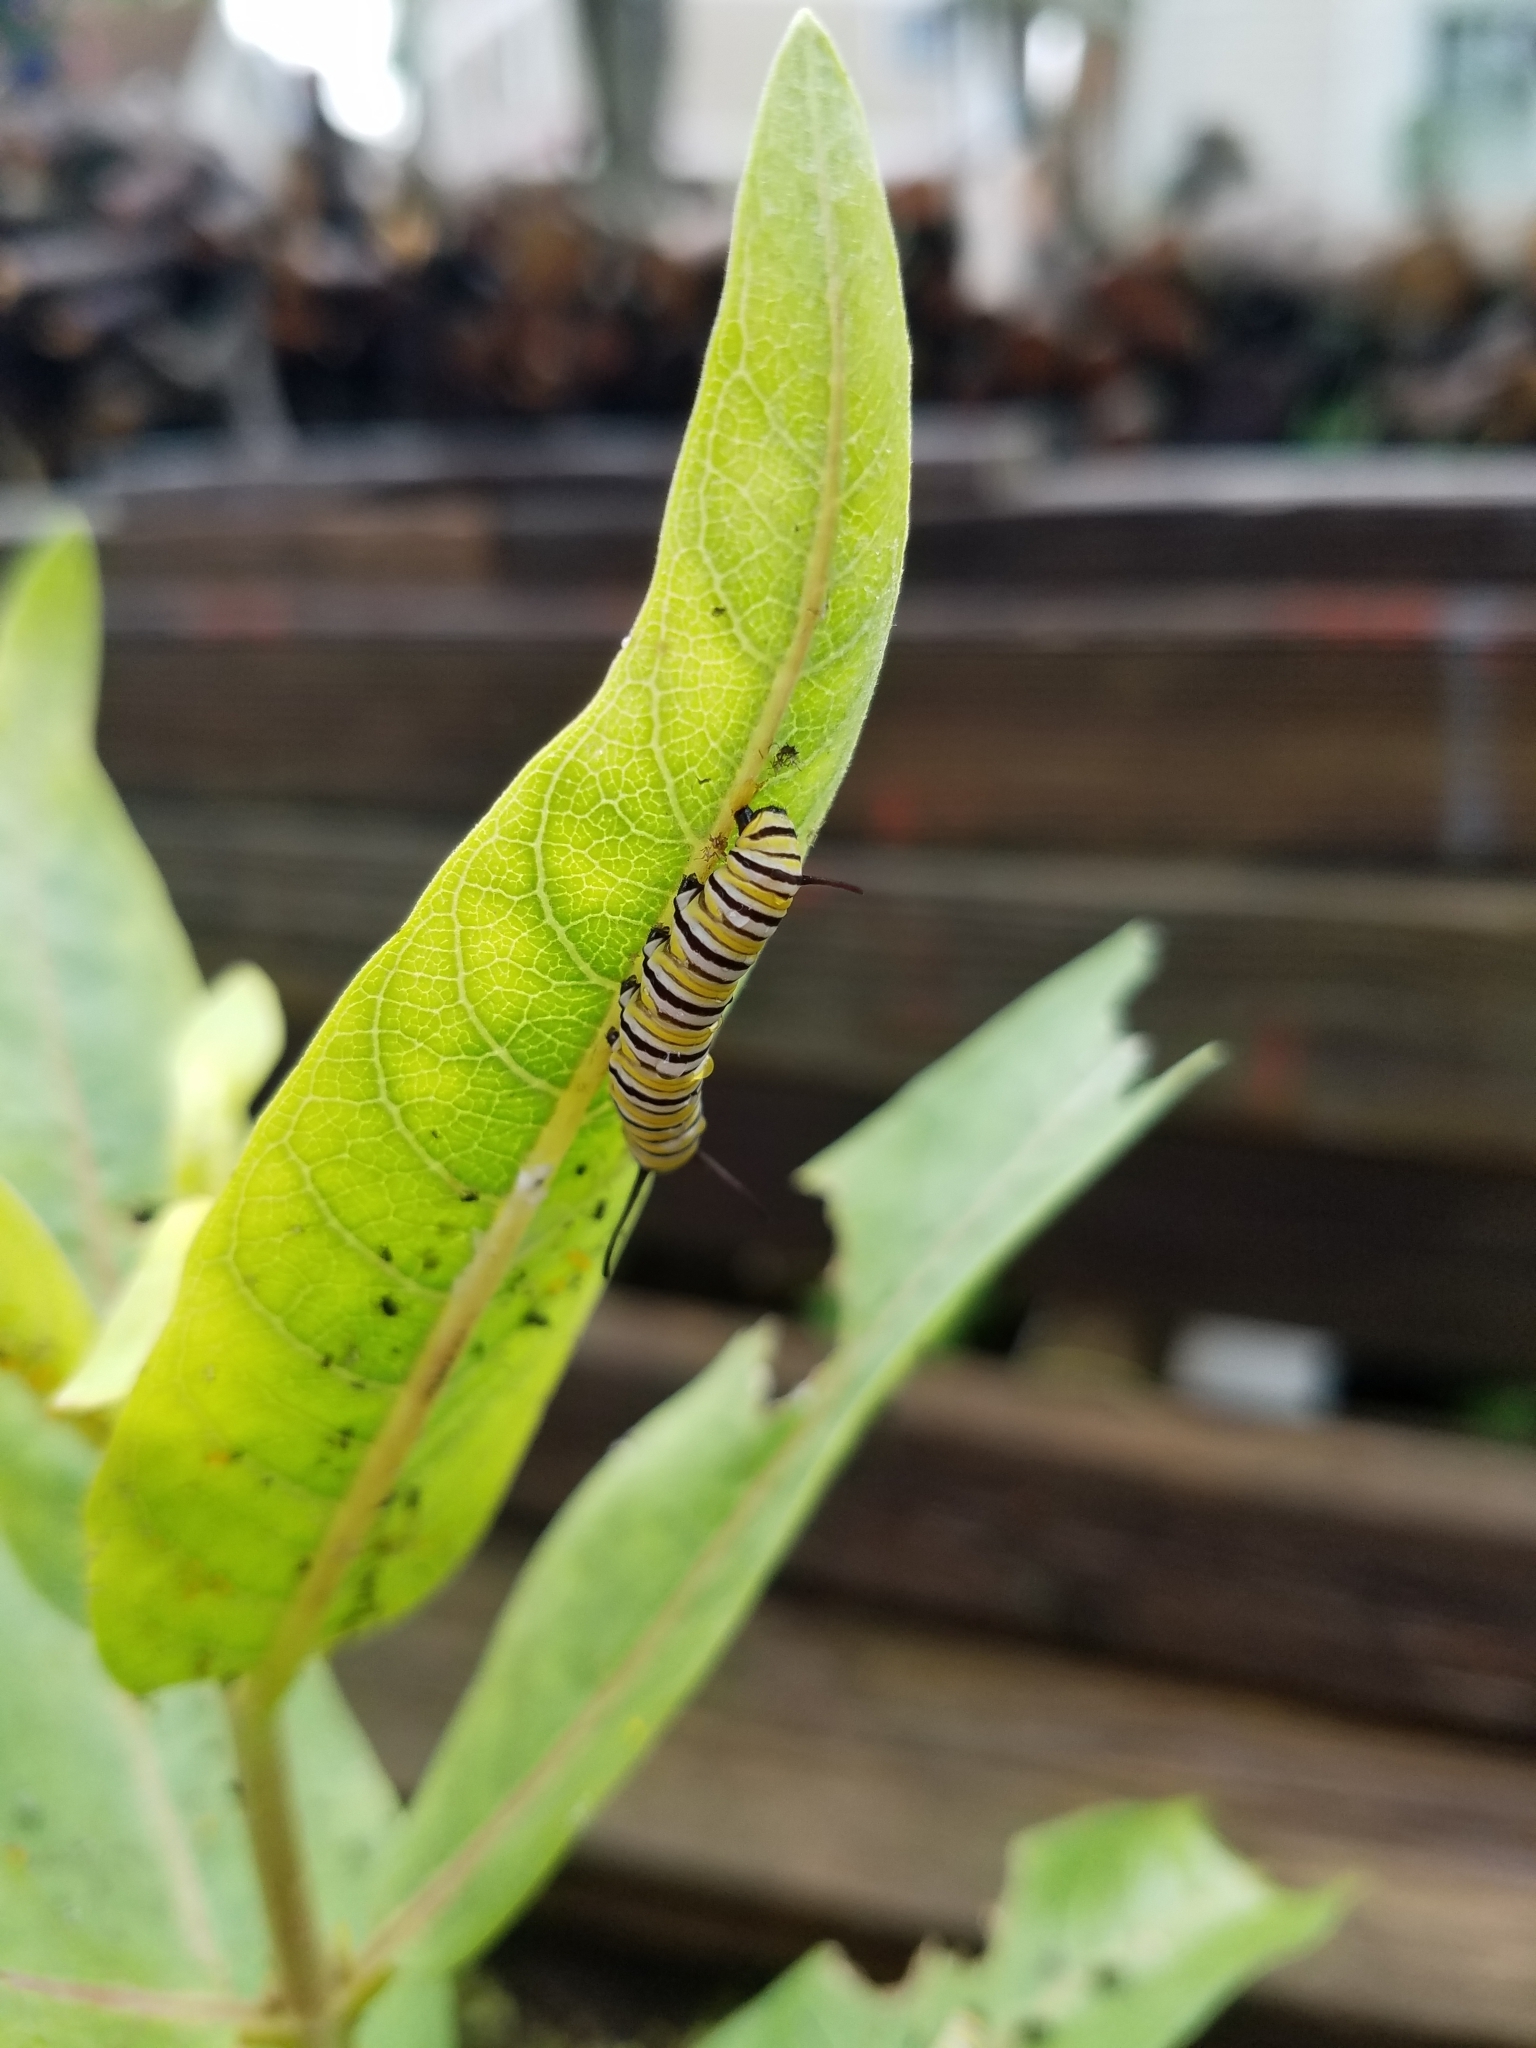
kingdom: Animalia
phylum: Arthropoda
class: Insecta
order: Lepidoptera
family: Nymphalidae
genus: Danaus
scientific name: Danaus plexippus
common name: Monarch
